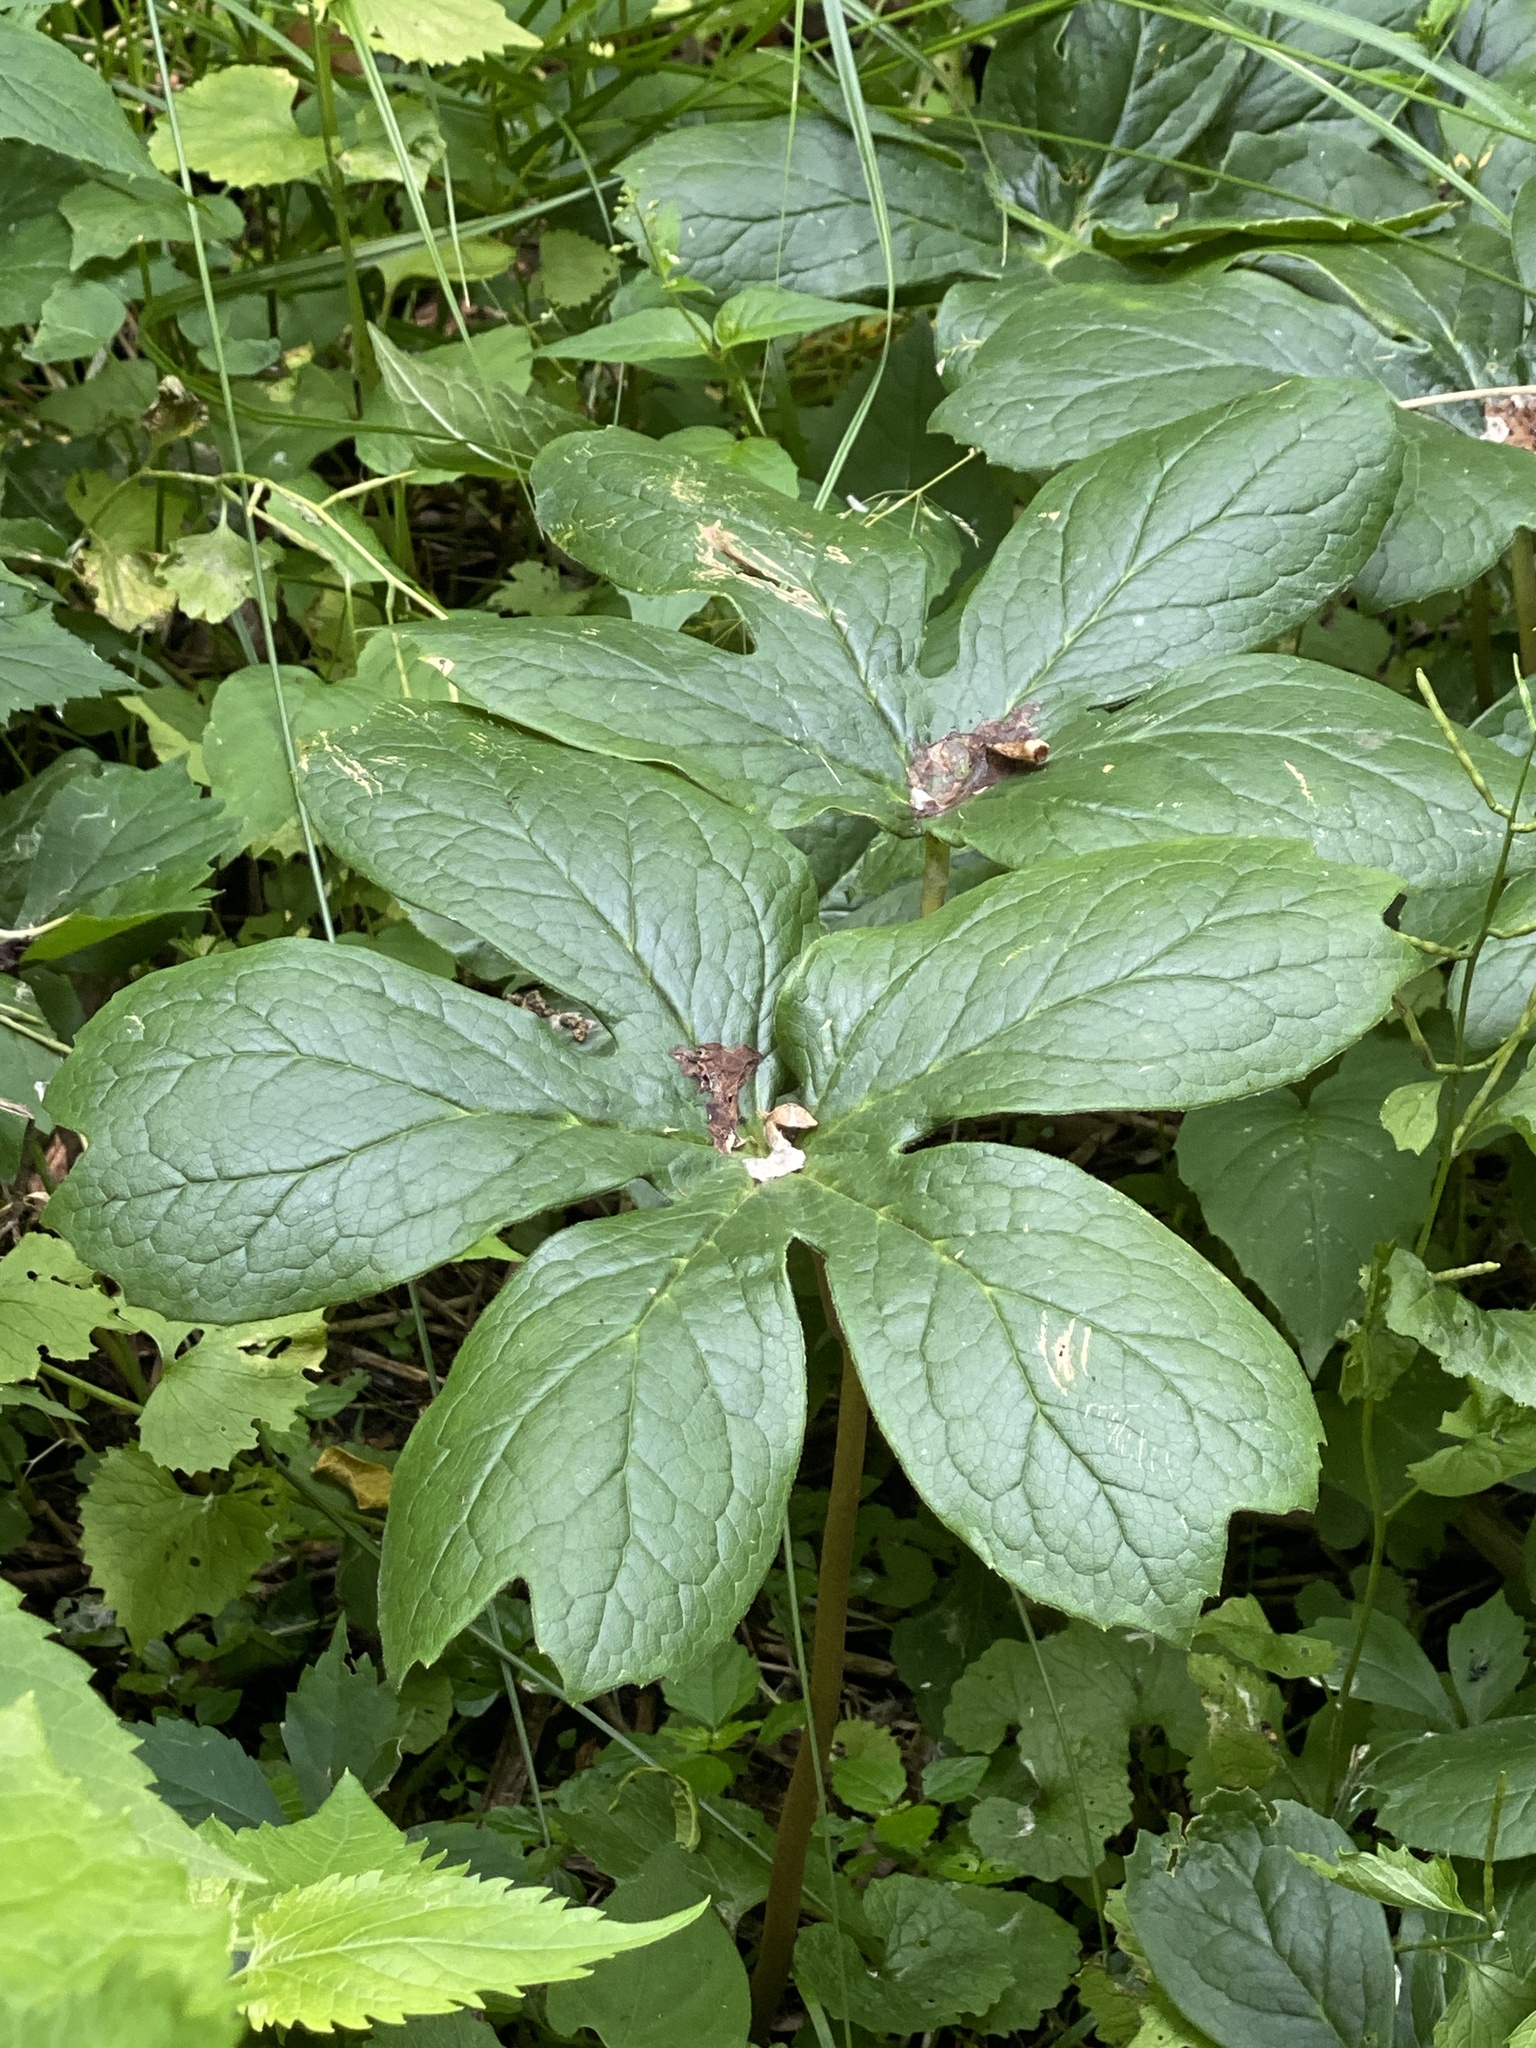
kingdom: Plantae
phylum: Tracheophyta
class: Magnoliopsida
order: Ranunculales
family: Berberidaceae
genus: Podophyllum
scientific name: Podophyllum peltatum
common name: Wild mandrake
